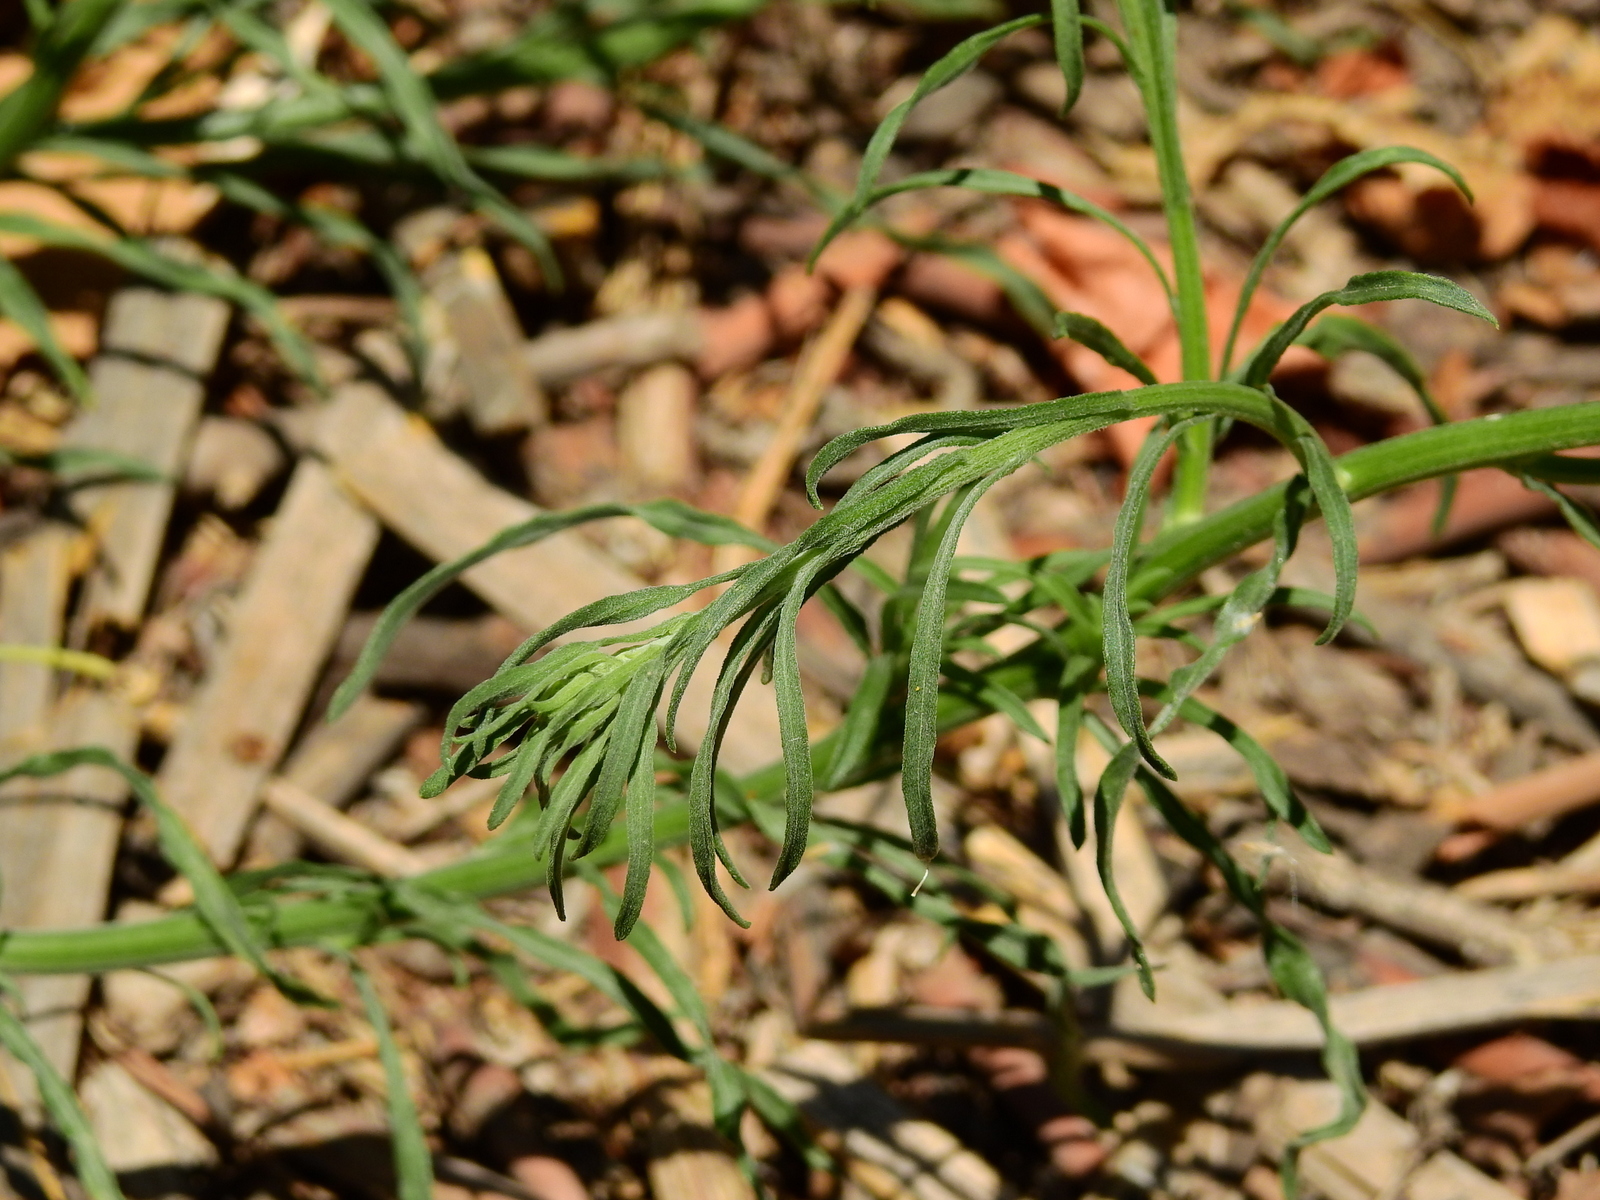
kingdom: Plantae
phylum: Tracheophyta
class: Magnoliopsida
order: Asterales
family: Asteraceae
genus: Erigeron
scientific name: Erigeron bonariensis
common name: Argentine fleabane
